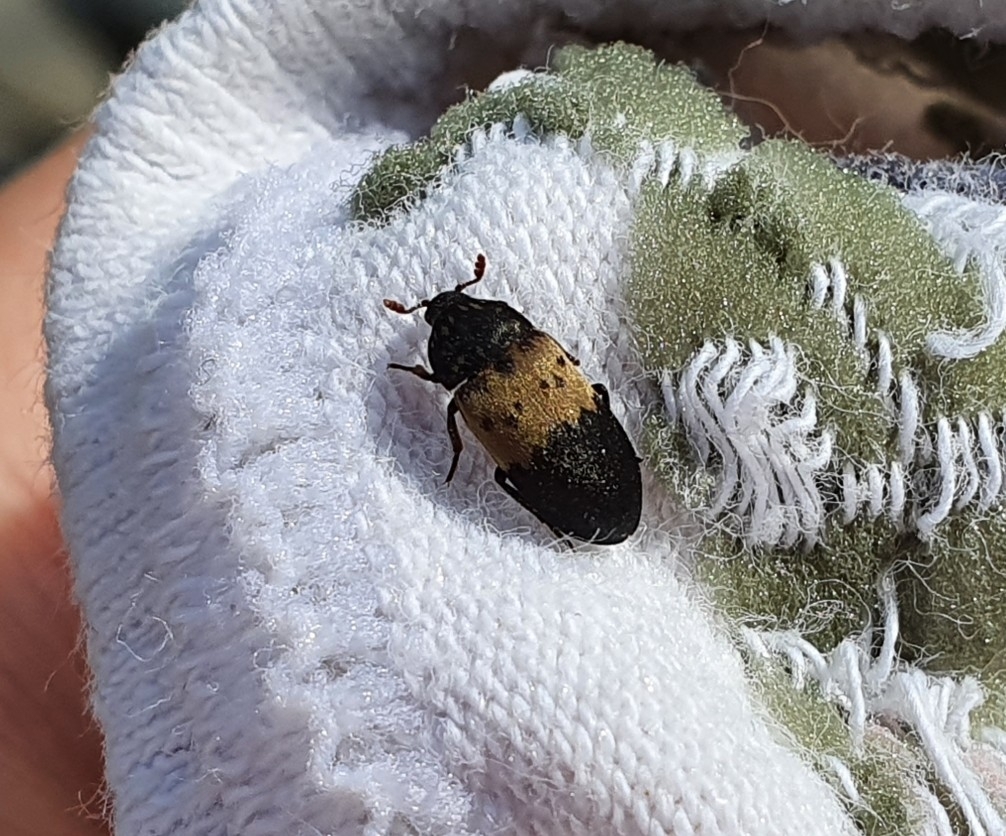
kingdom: Animalia
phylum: Arthropoda
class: Insecta
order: Coleoptera
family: Dermestidae
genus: Dermestes
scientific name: Dermestes lardarius
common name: Larder beetle
